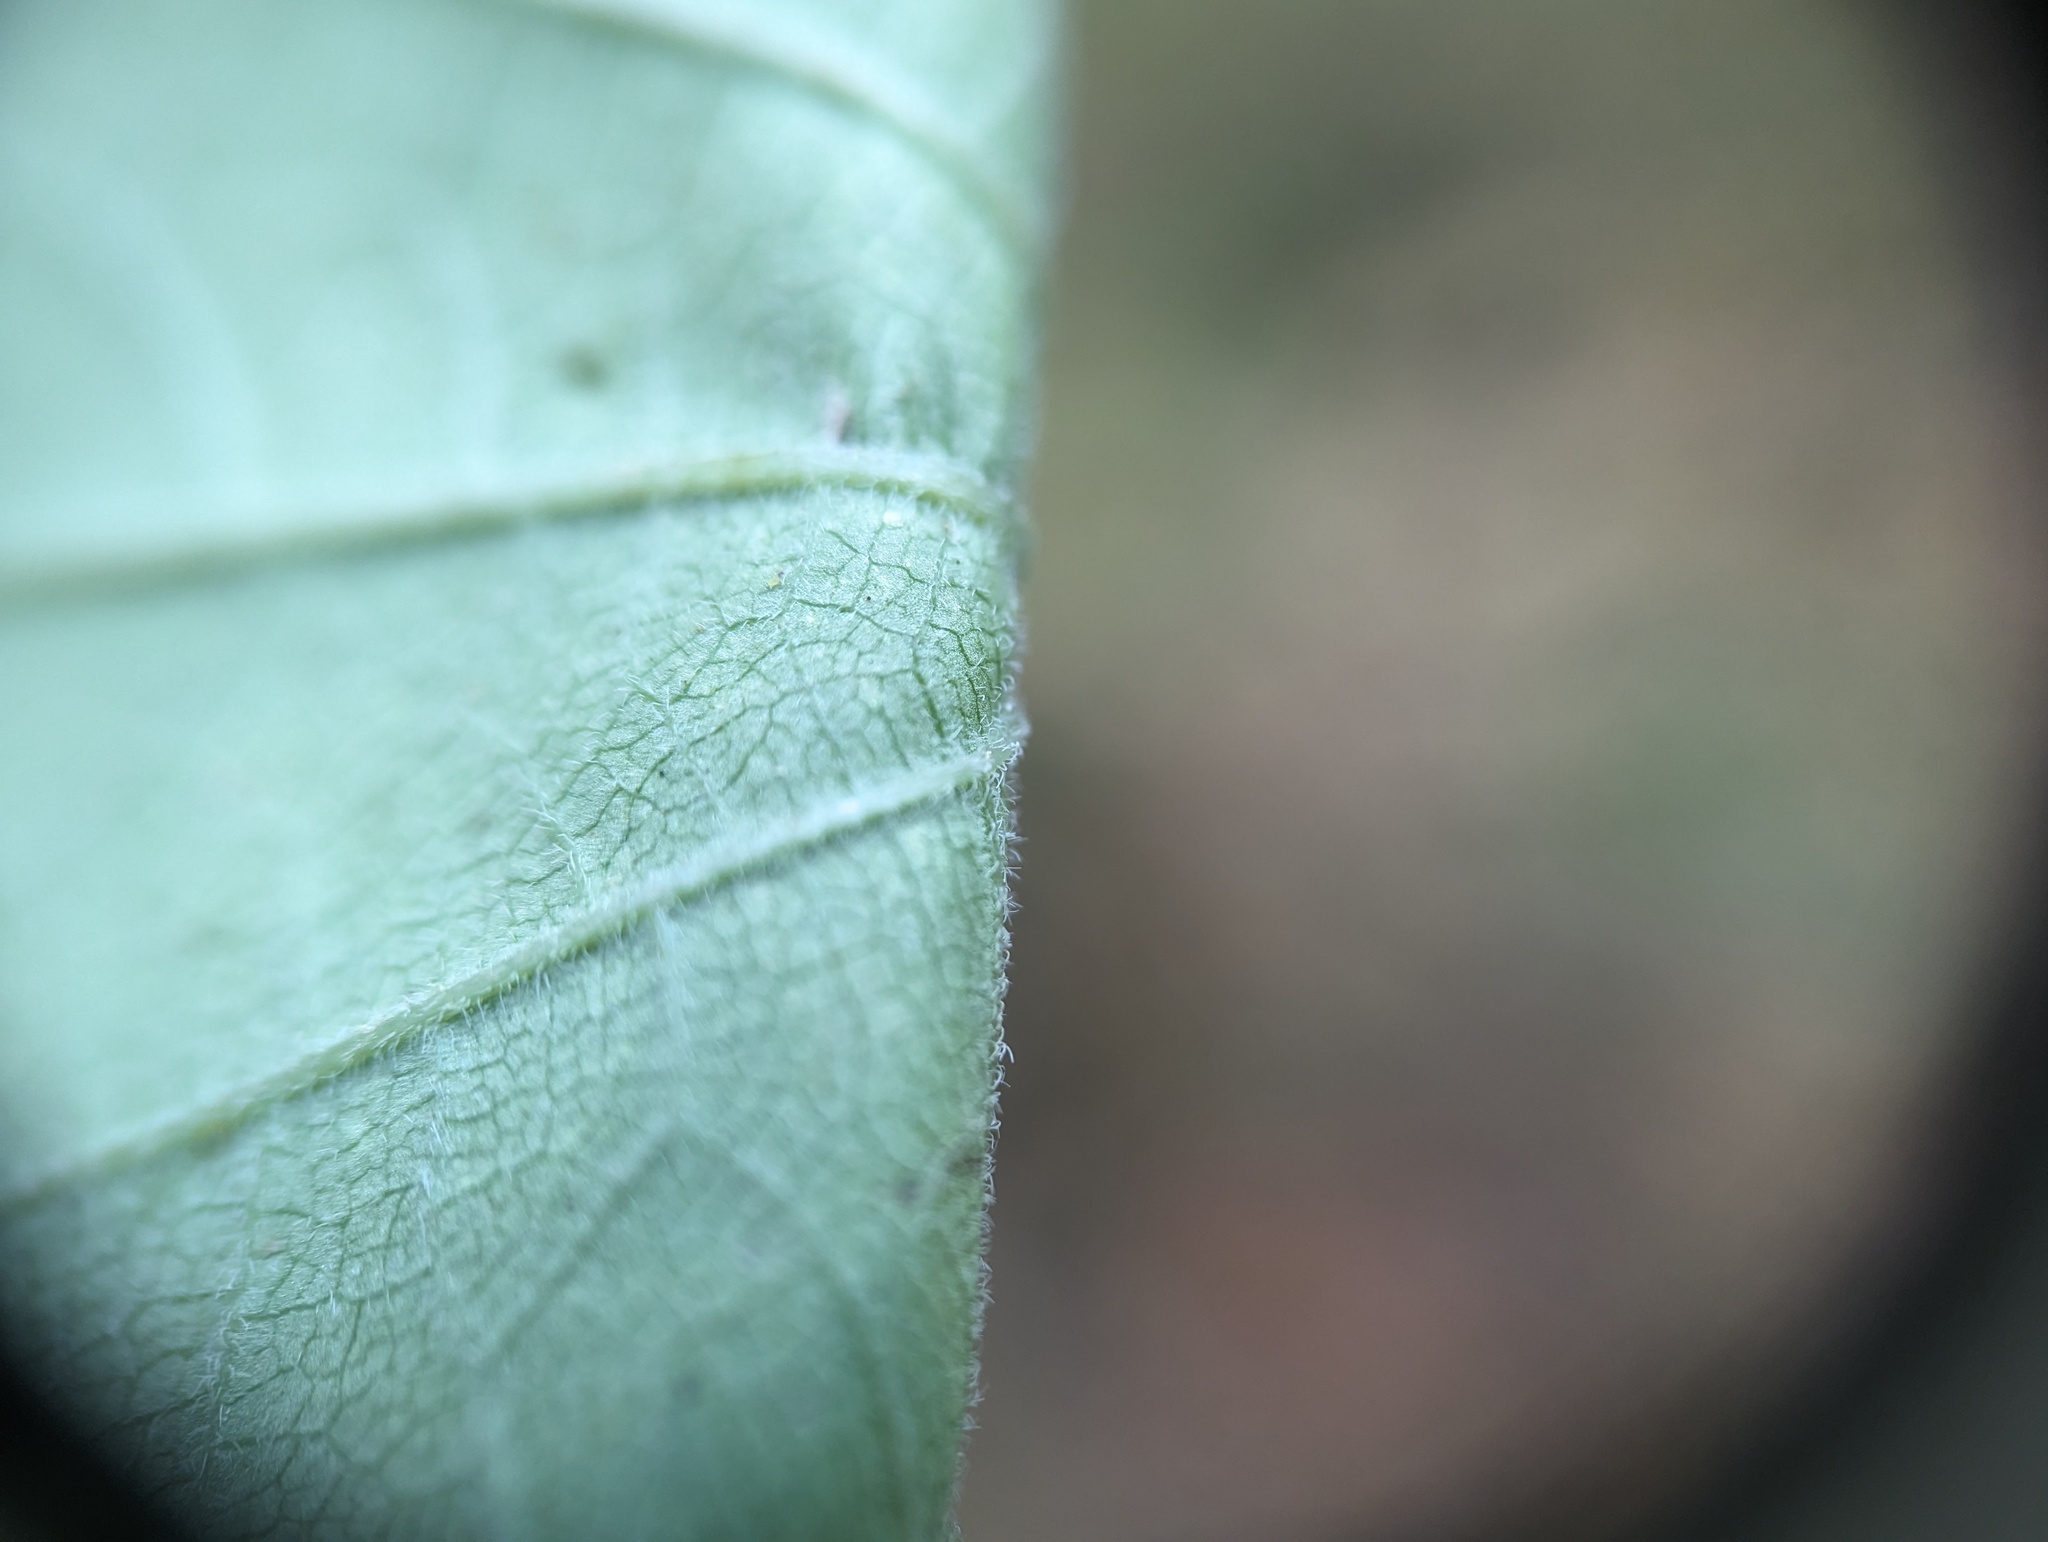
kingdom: Plantae
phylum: Tracheophyta
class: Magnoliopsida
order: Cornales
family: Hydrangeaceae
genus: Hydrangea
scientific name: Hydrangea cinerea
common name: Ashy hydrangea
